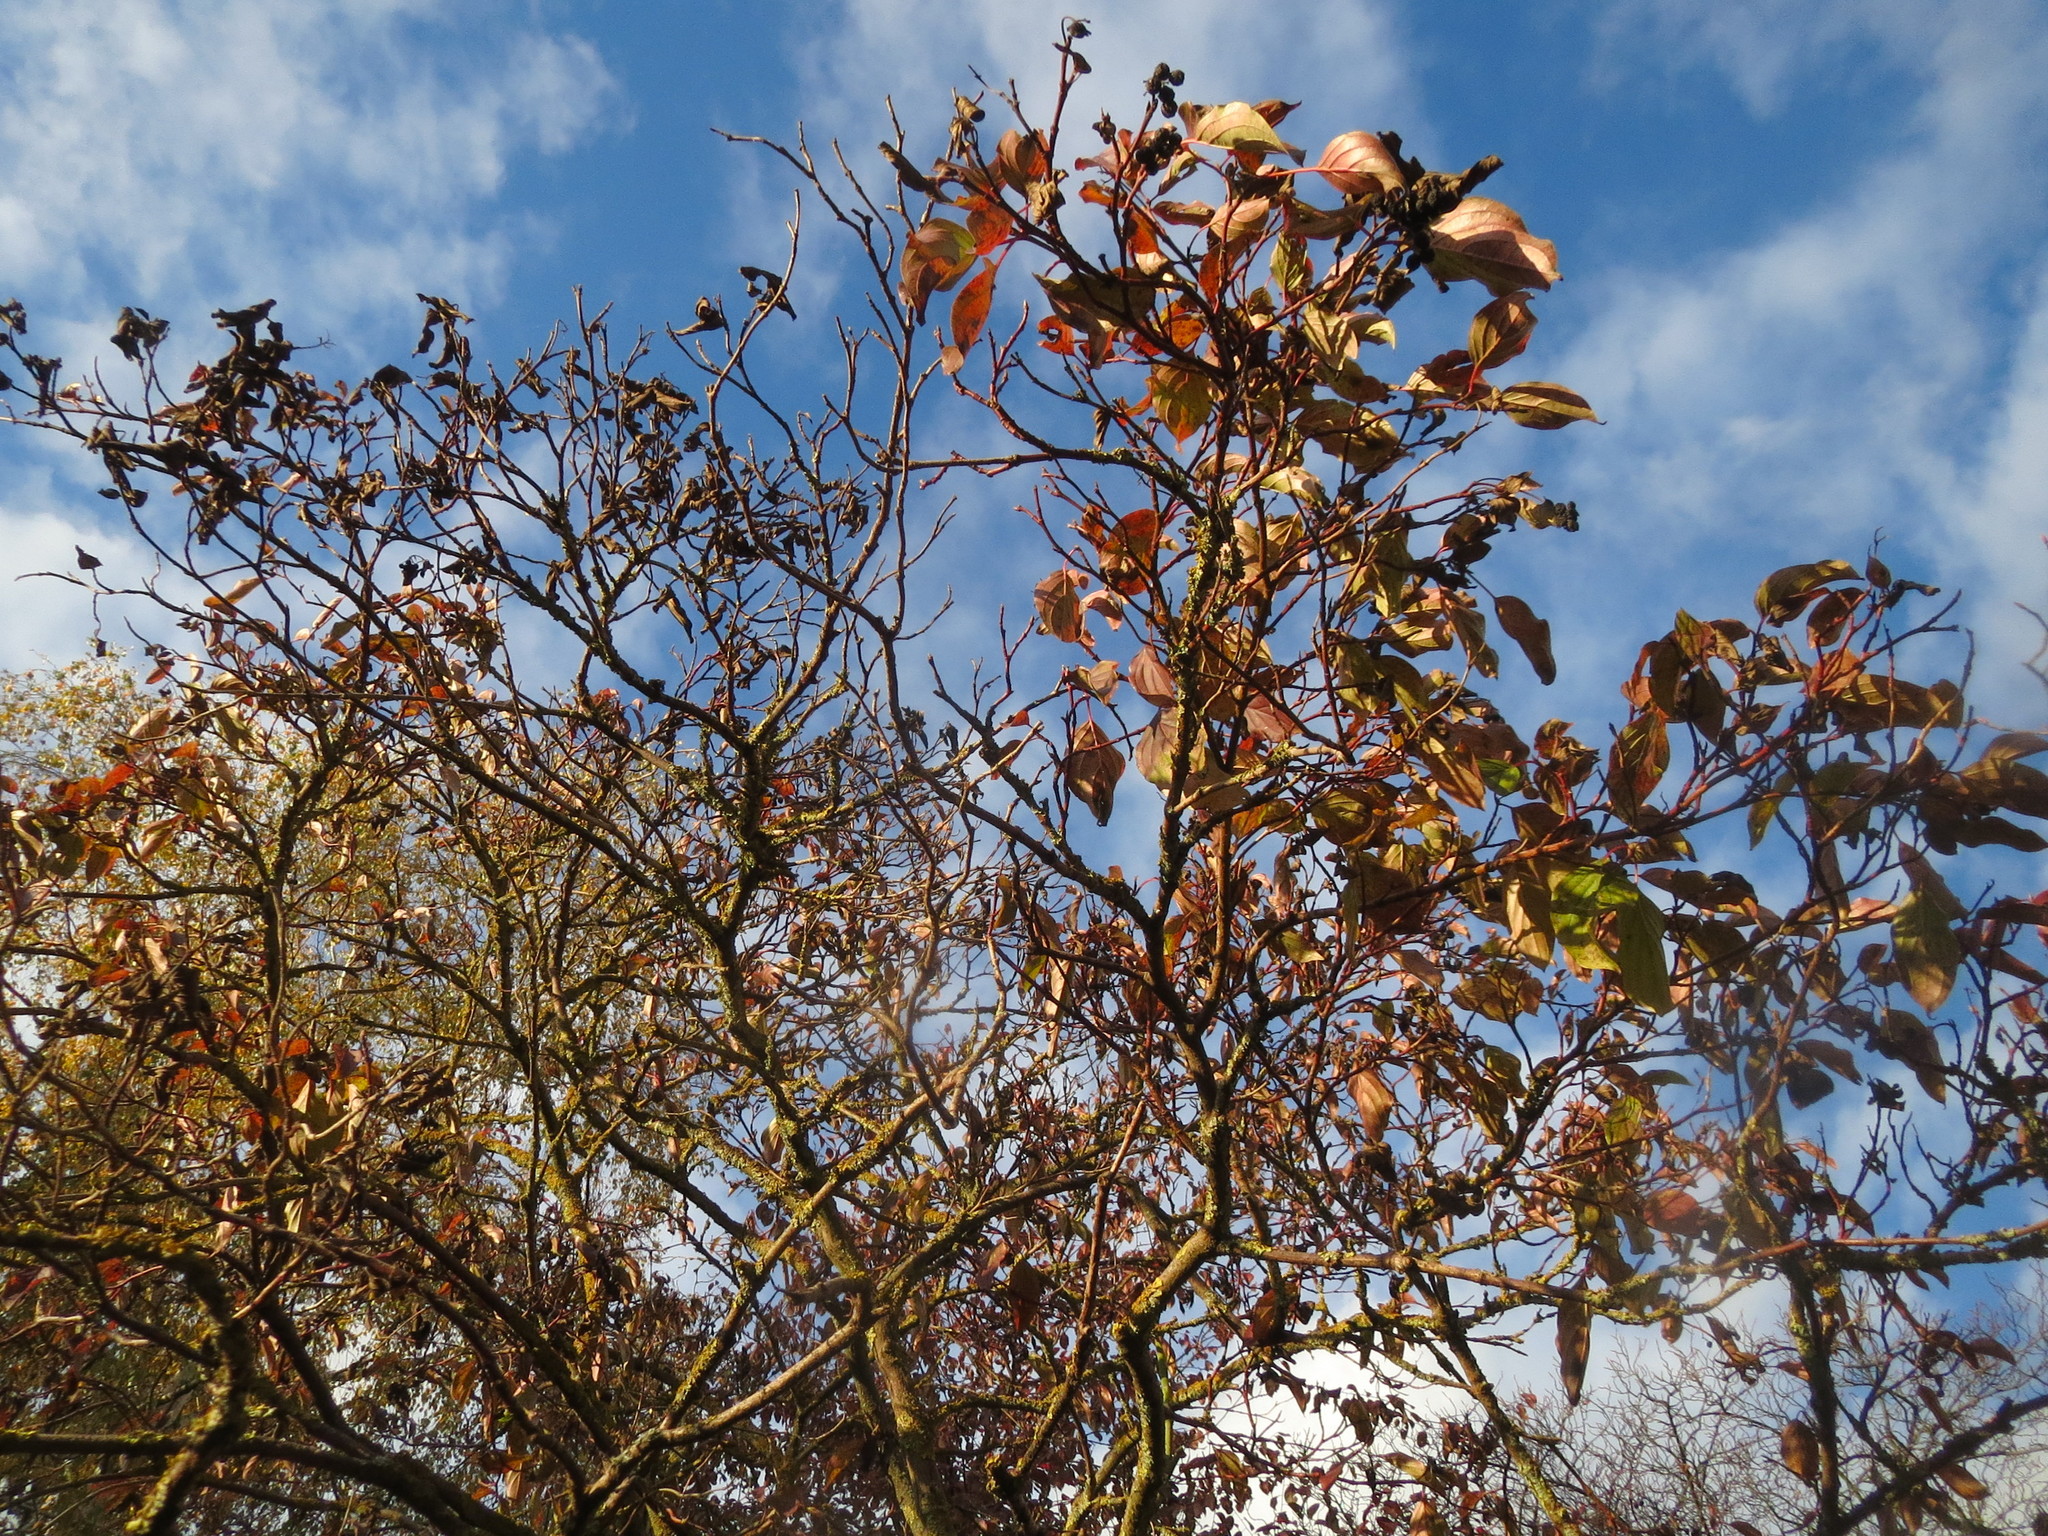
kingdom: Plantae
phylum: Tracheophyta
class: Magnoliopsida
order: Cornales
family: Cornaceae
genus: Cornus
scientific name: Cornus sanguinea
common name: Dogwood
